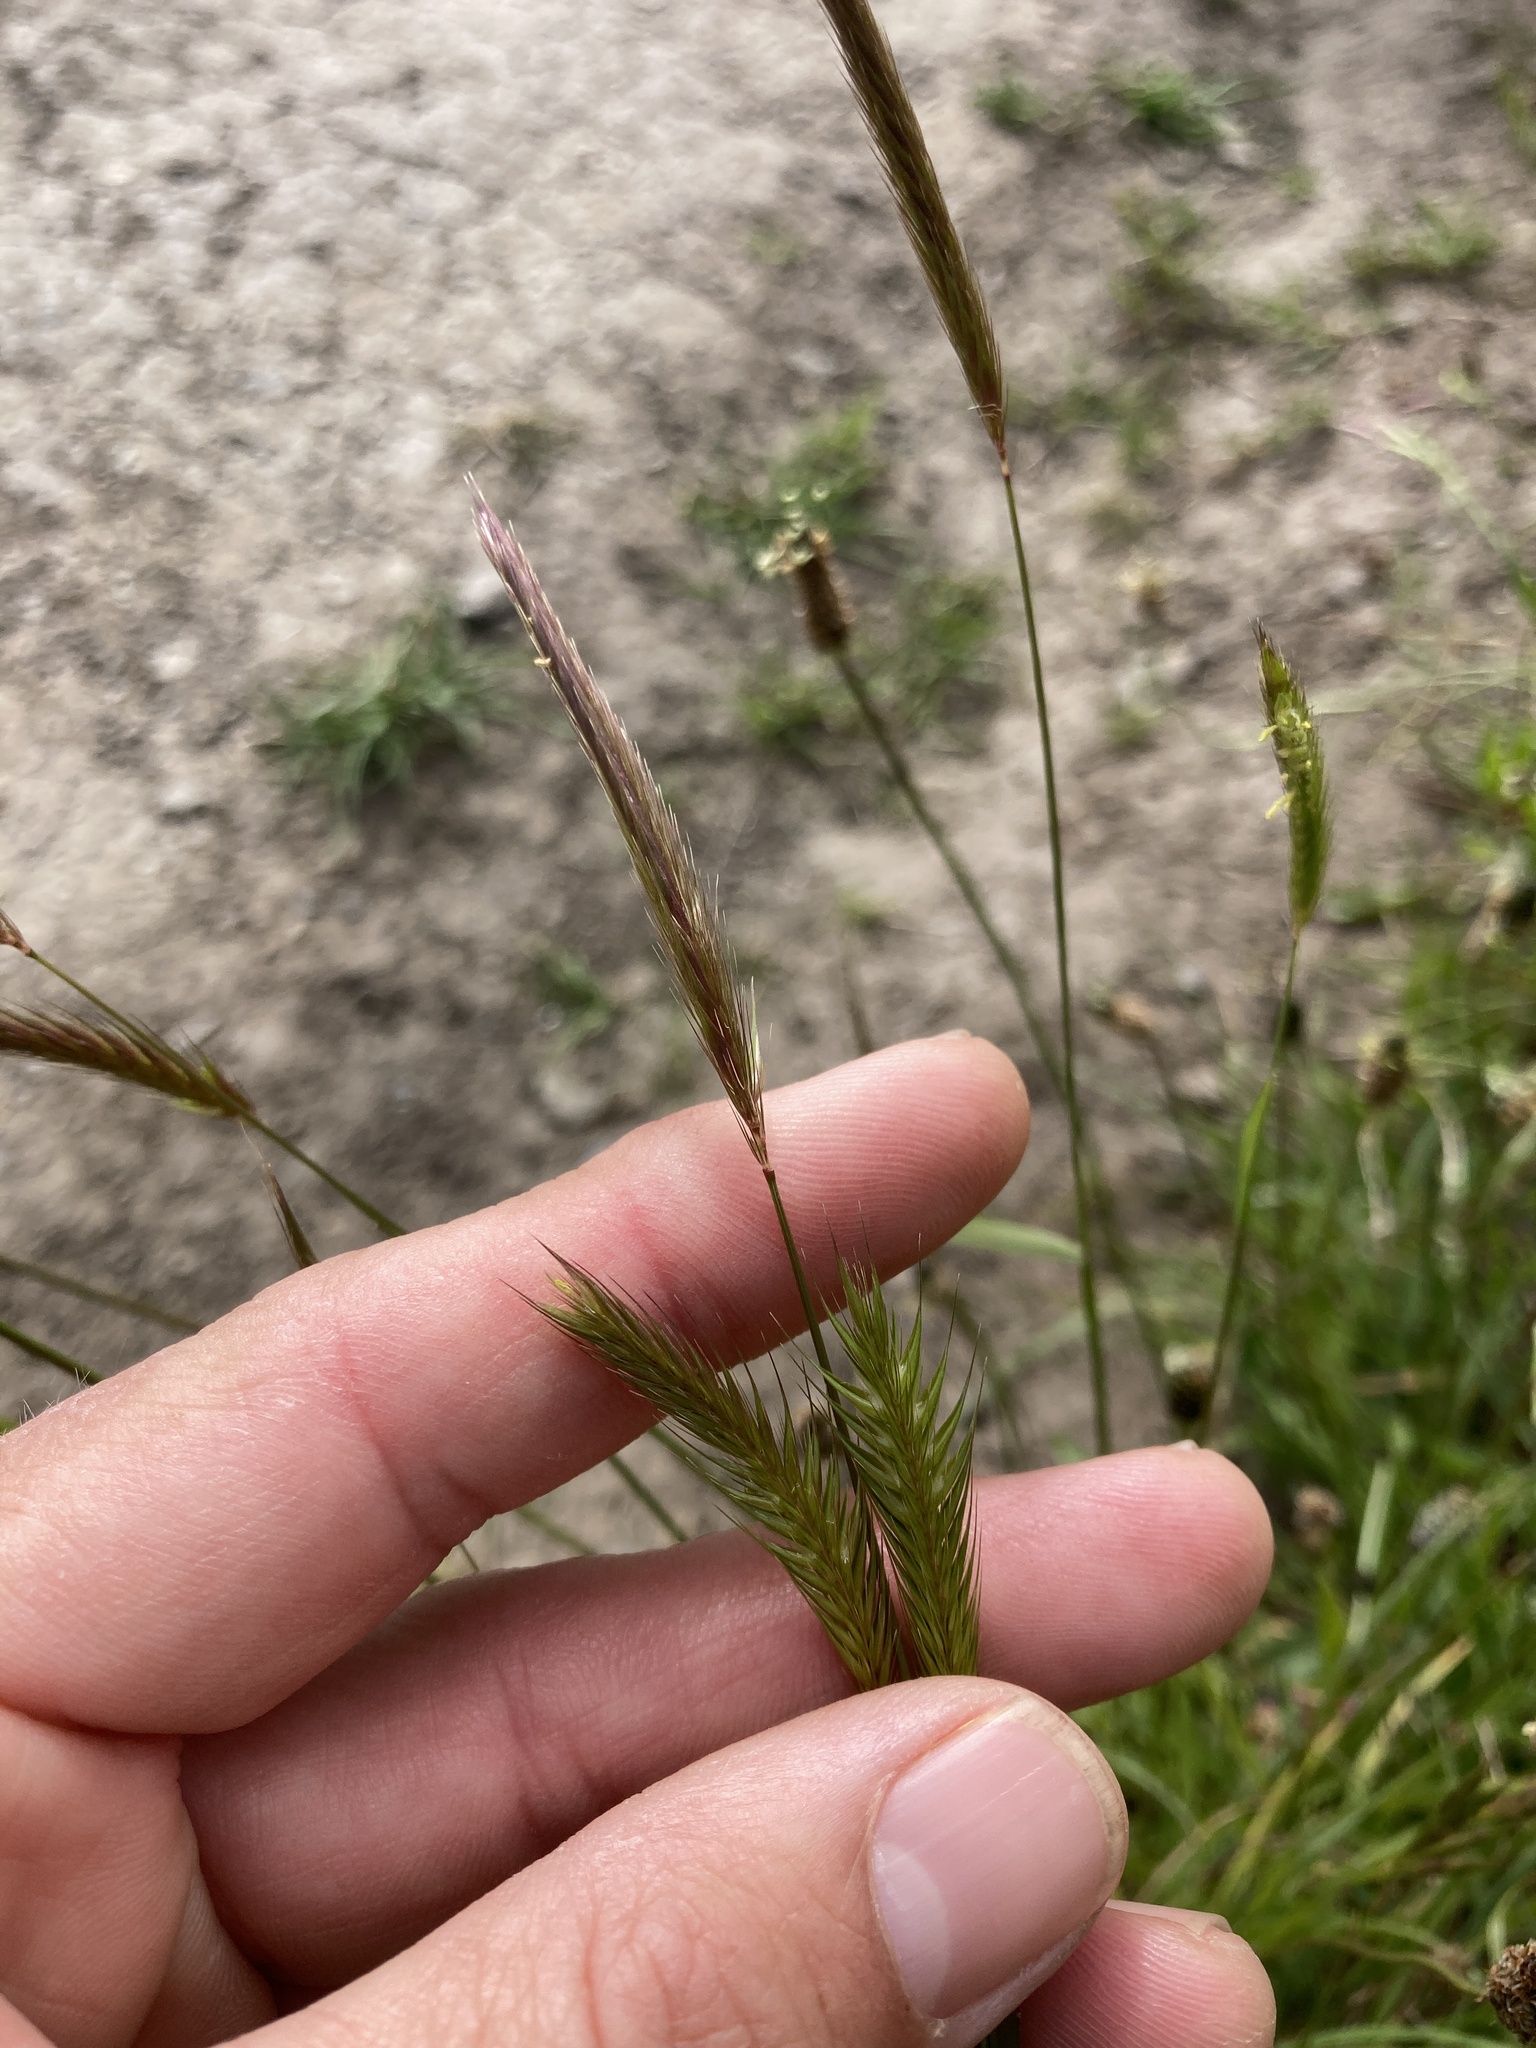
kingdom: Plantae
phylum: Tracheophyta
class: Liliopsida
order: Poales
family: Poaceae
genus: Hordeum
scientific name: Hordeum brachyantherum
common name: Meadow barley
